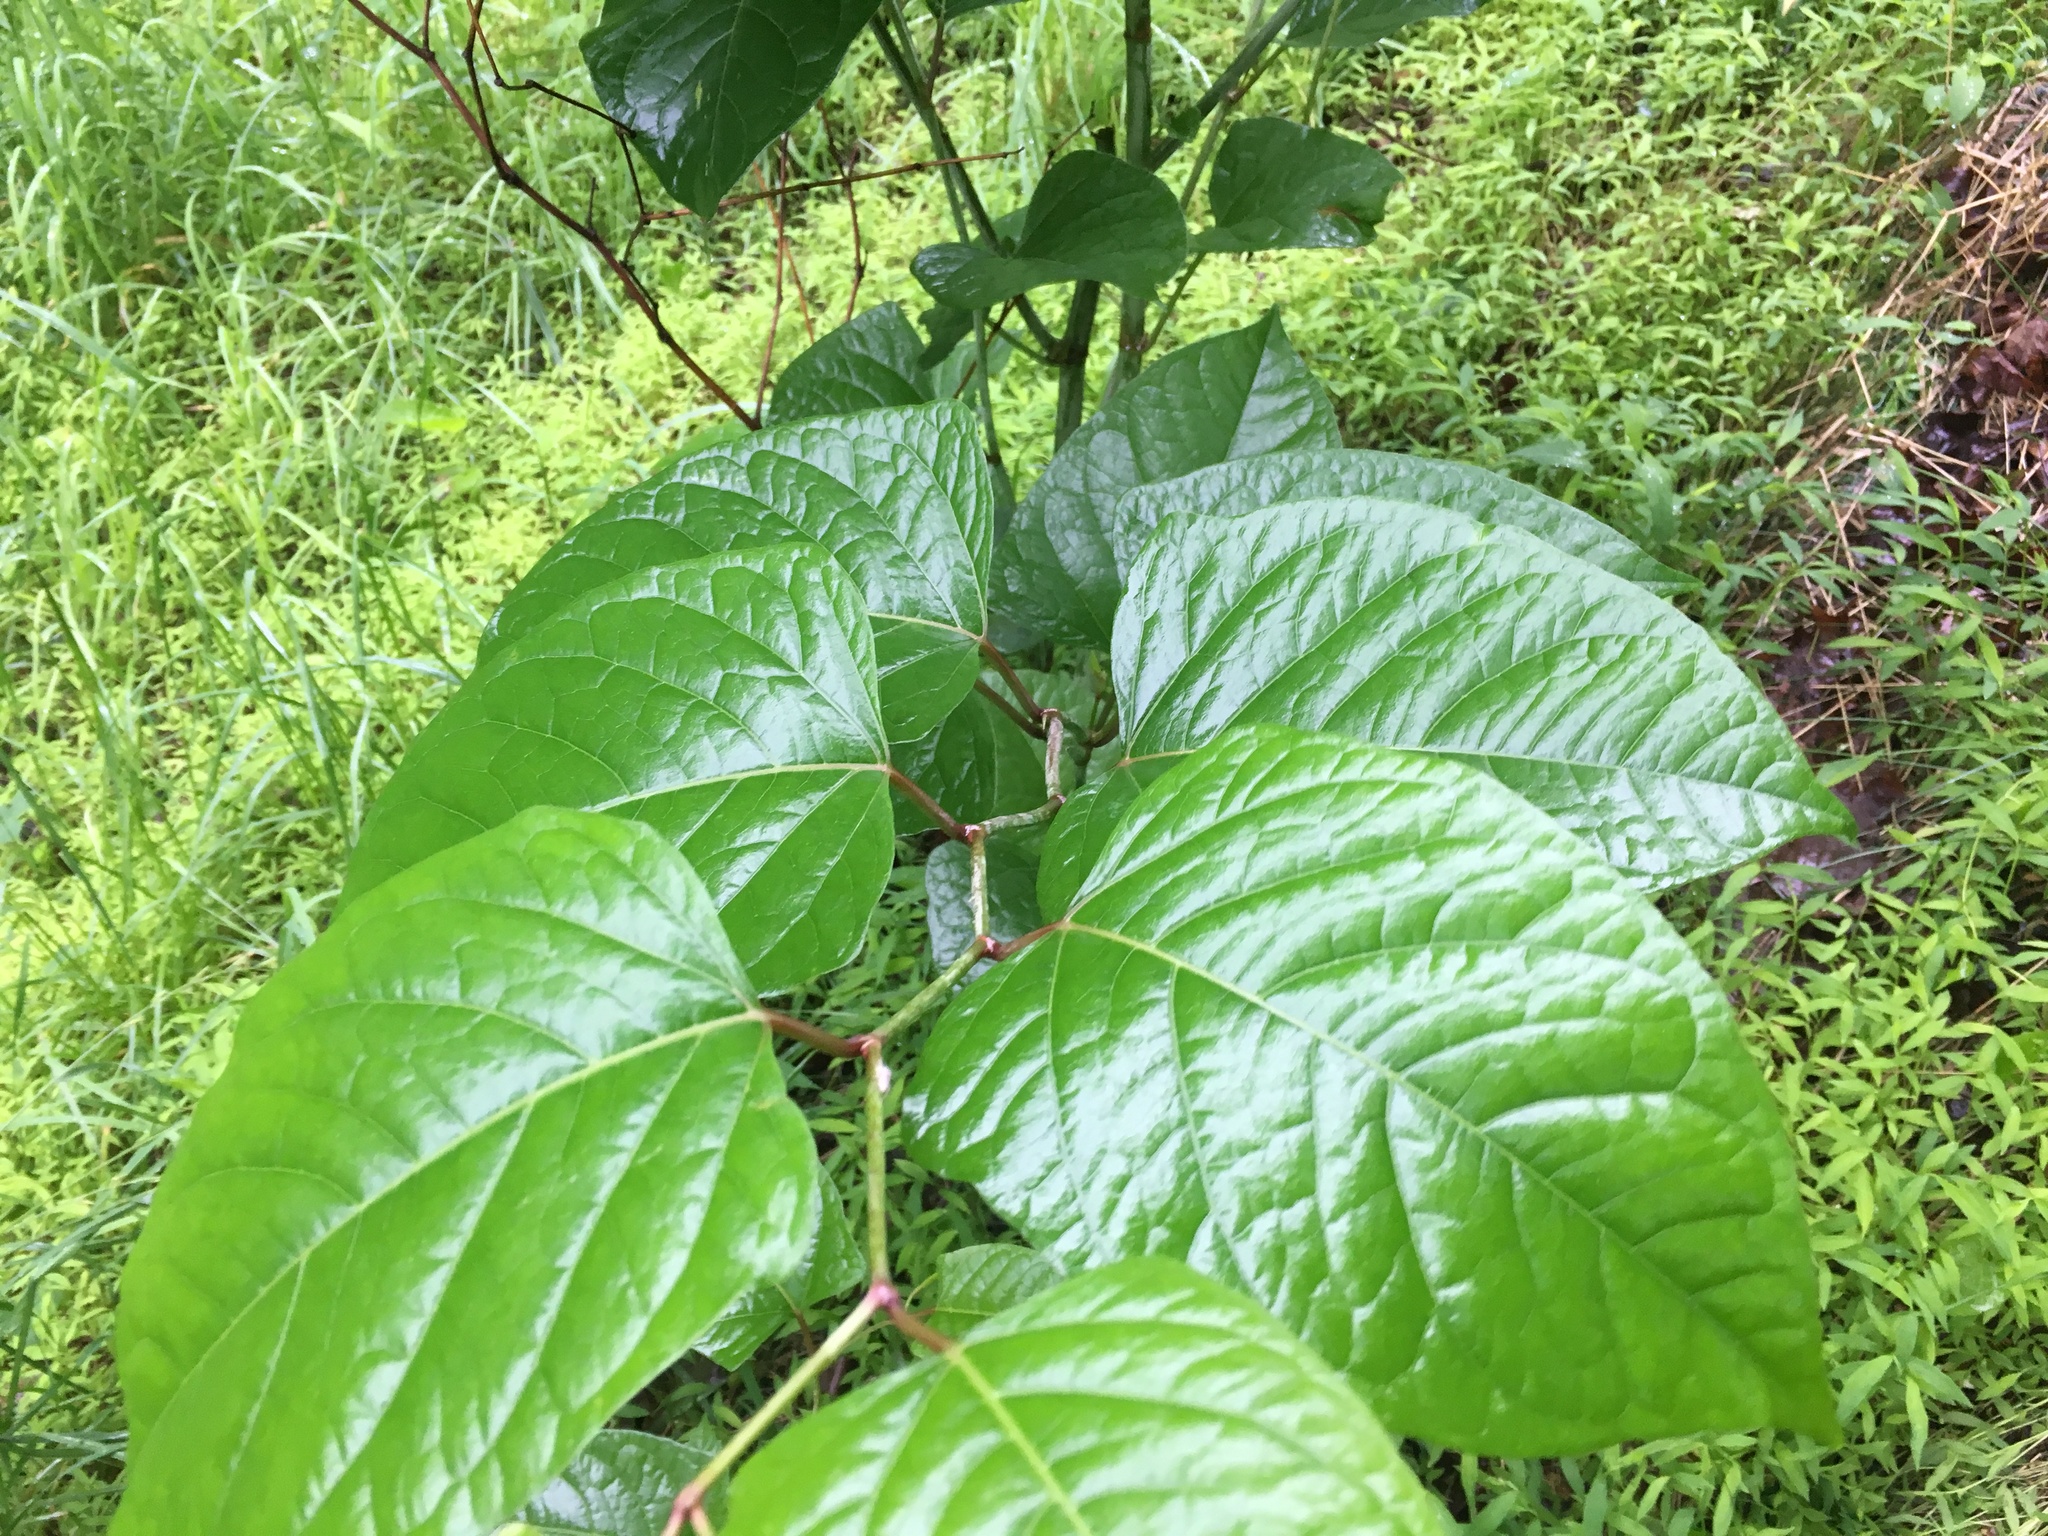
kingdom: Plantae
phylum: Tracheophyta
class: Magnoliopsida
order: Caryophyllales
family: Polygonaceae
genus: Reynoutria
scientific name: Reynoutria japonica
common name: Japanese knotweed
